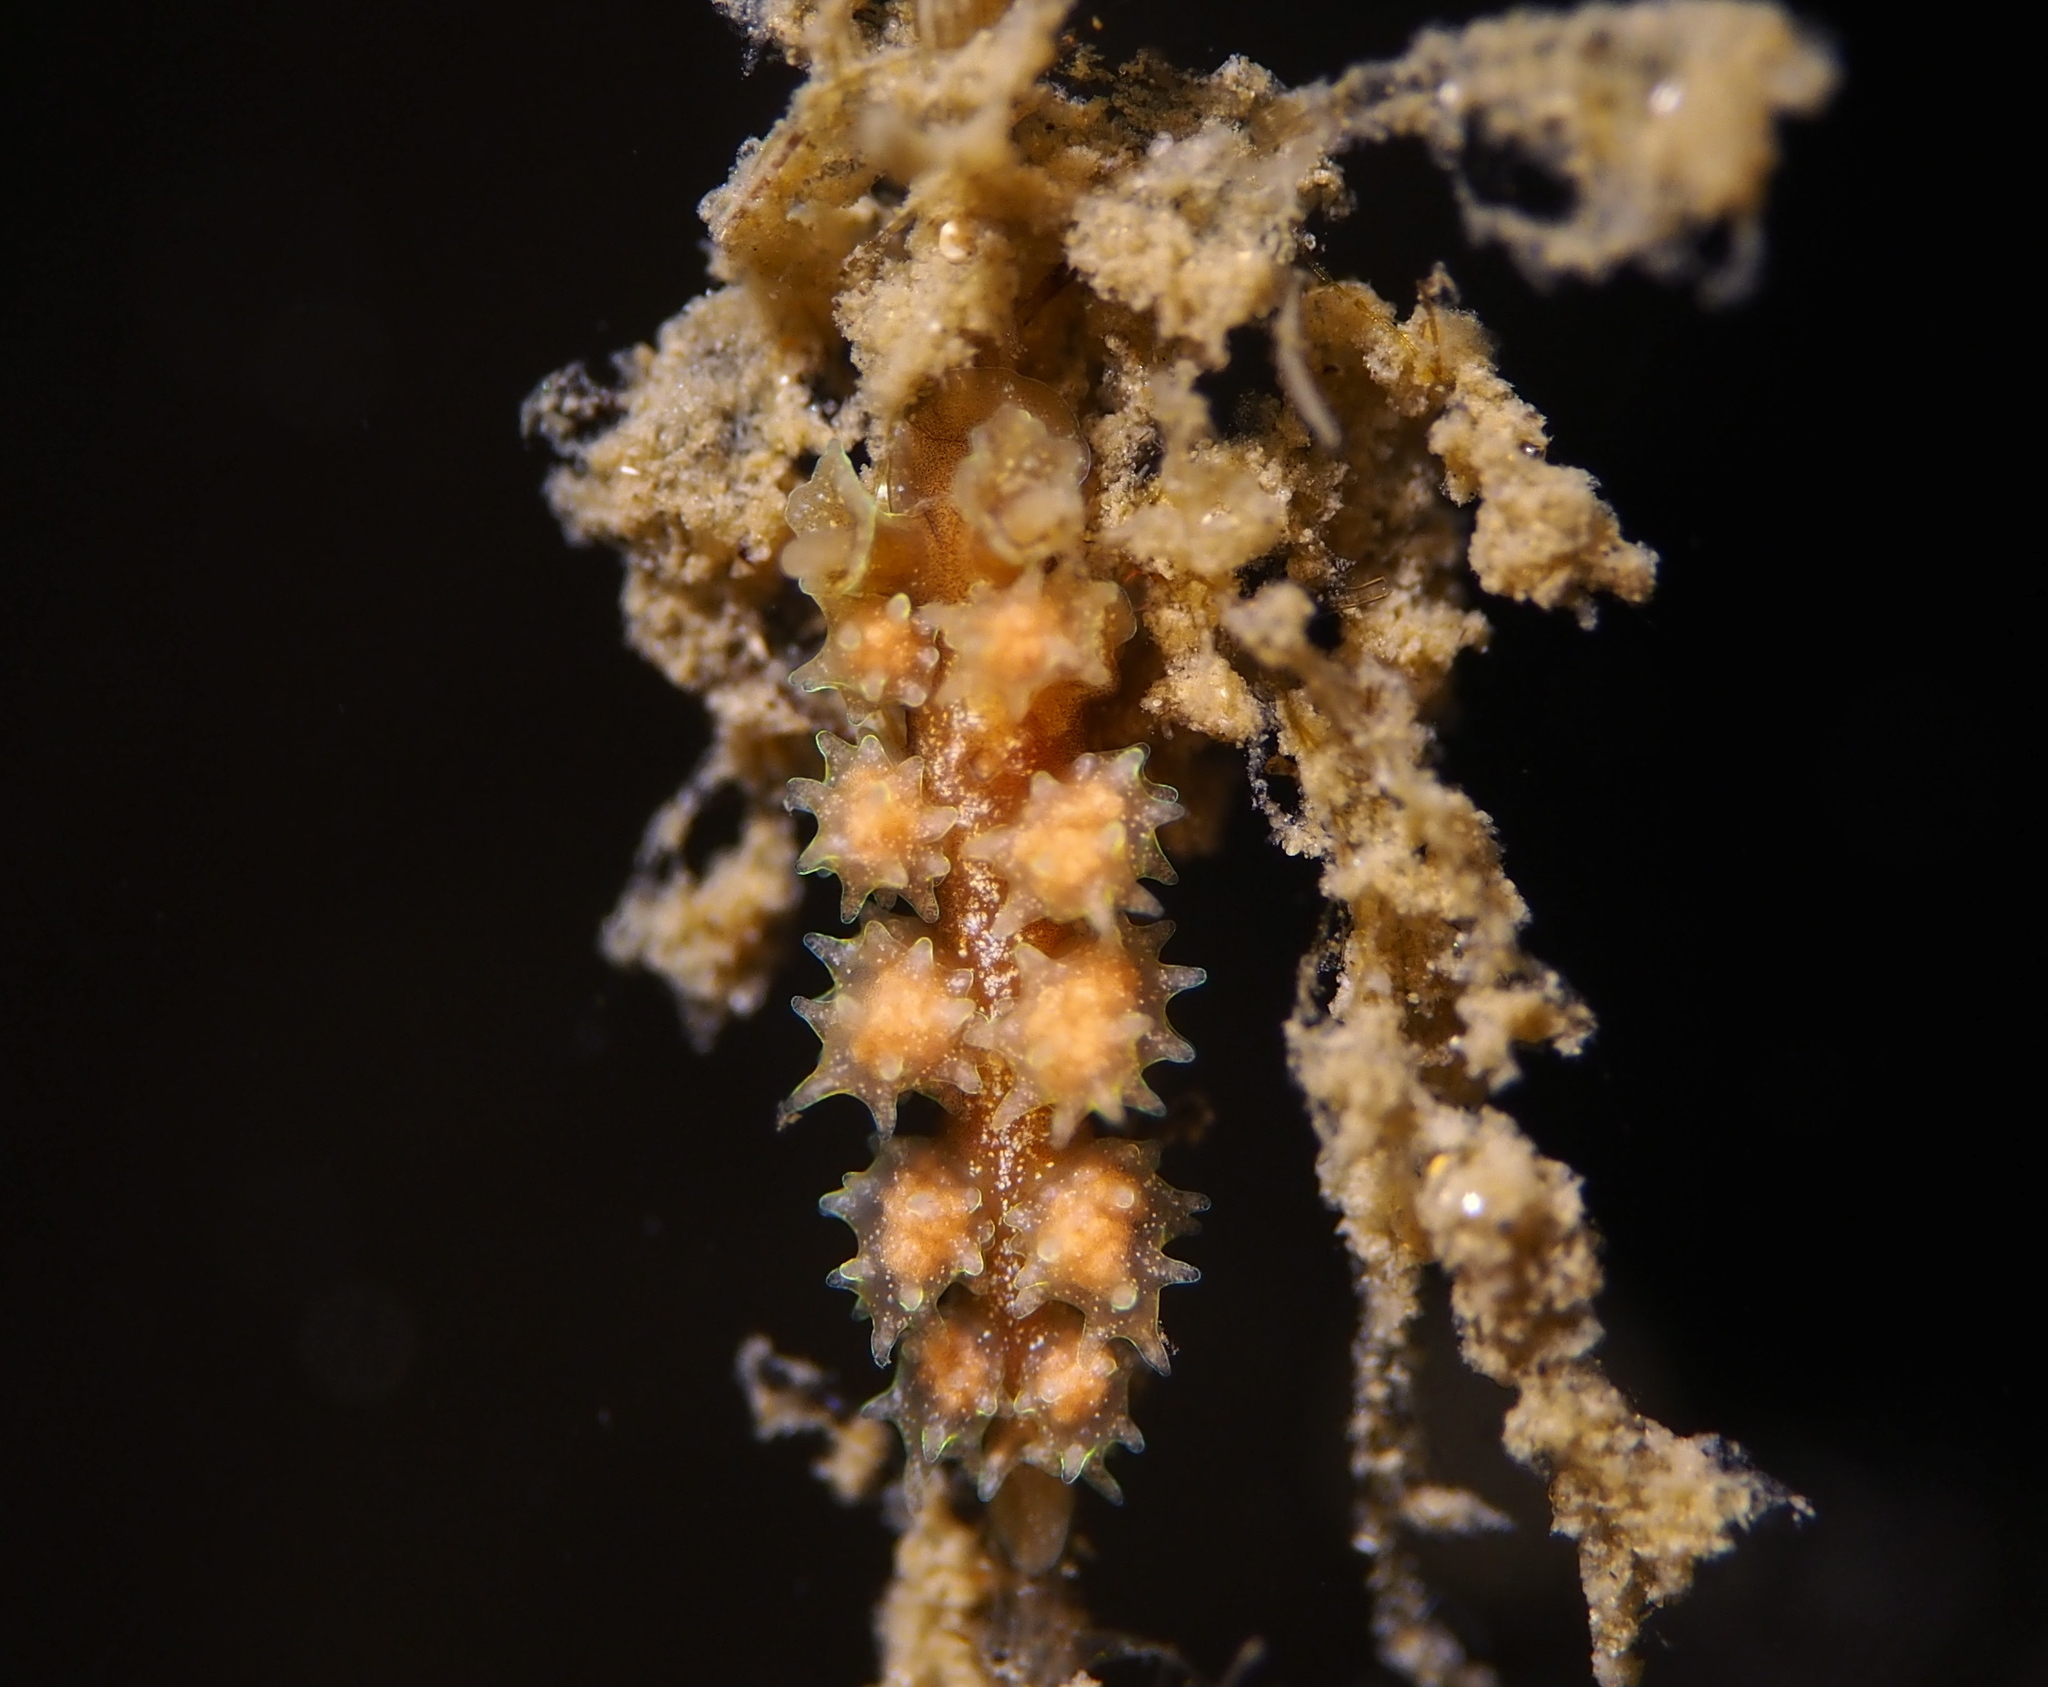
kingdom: Animalia
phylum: Mollusca
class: Gastropoda
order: Nudibranchia
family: Dotidae
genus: Doto
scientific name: Doto hystrix
